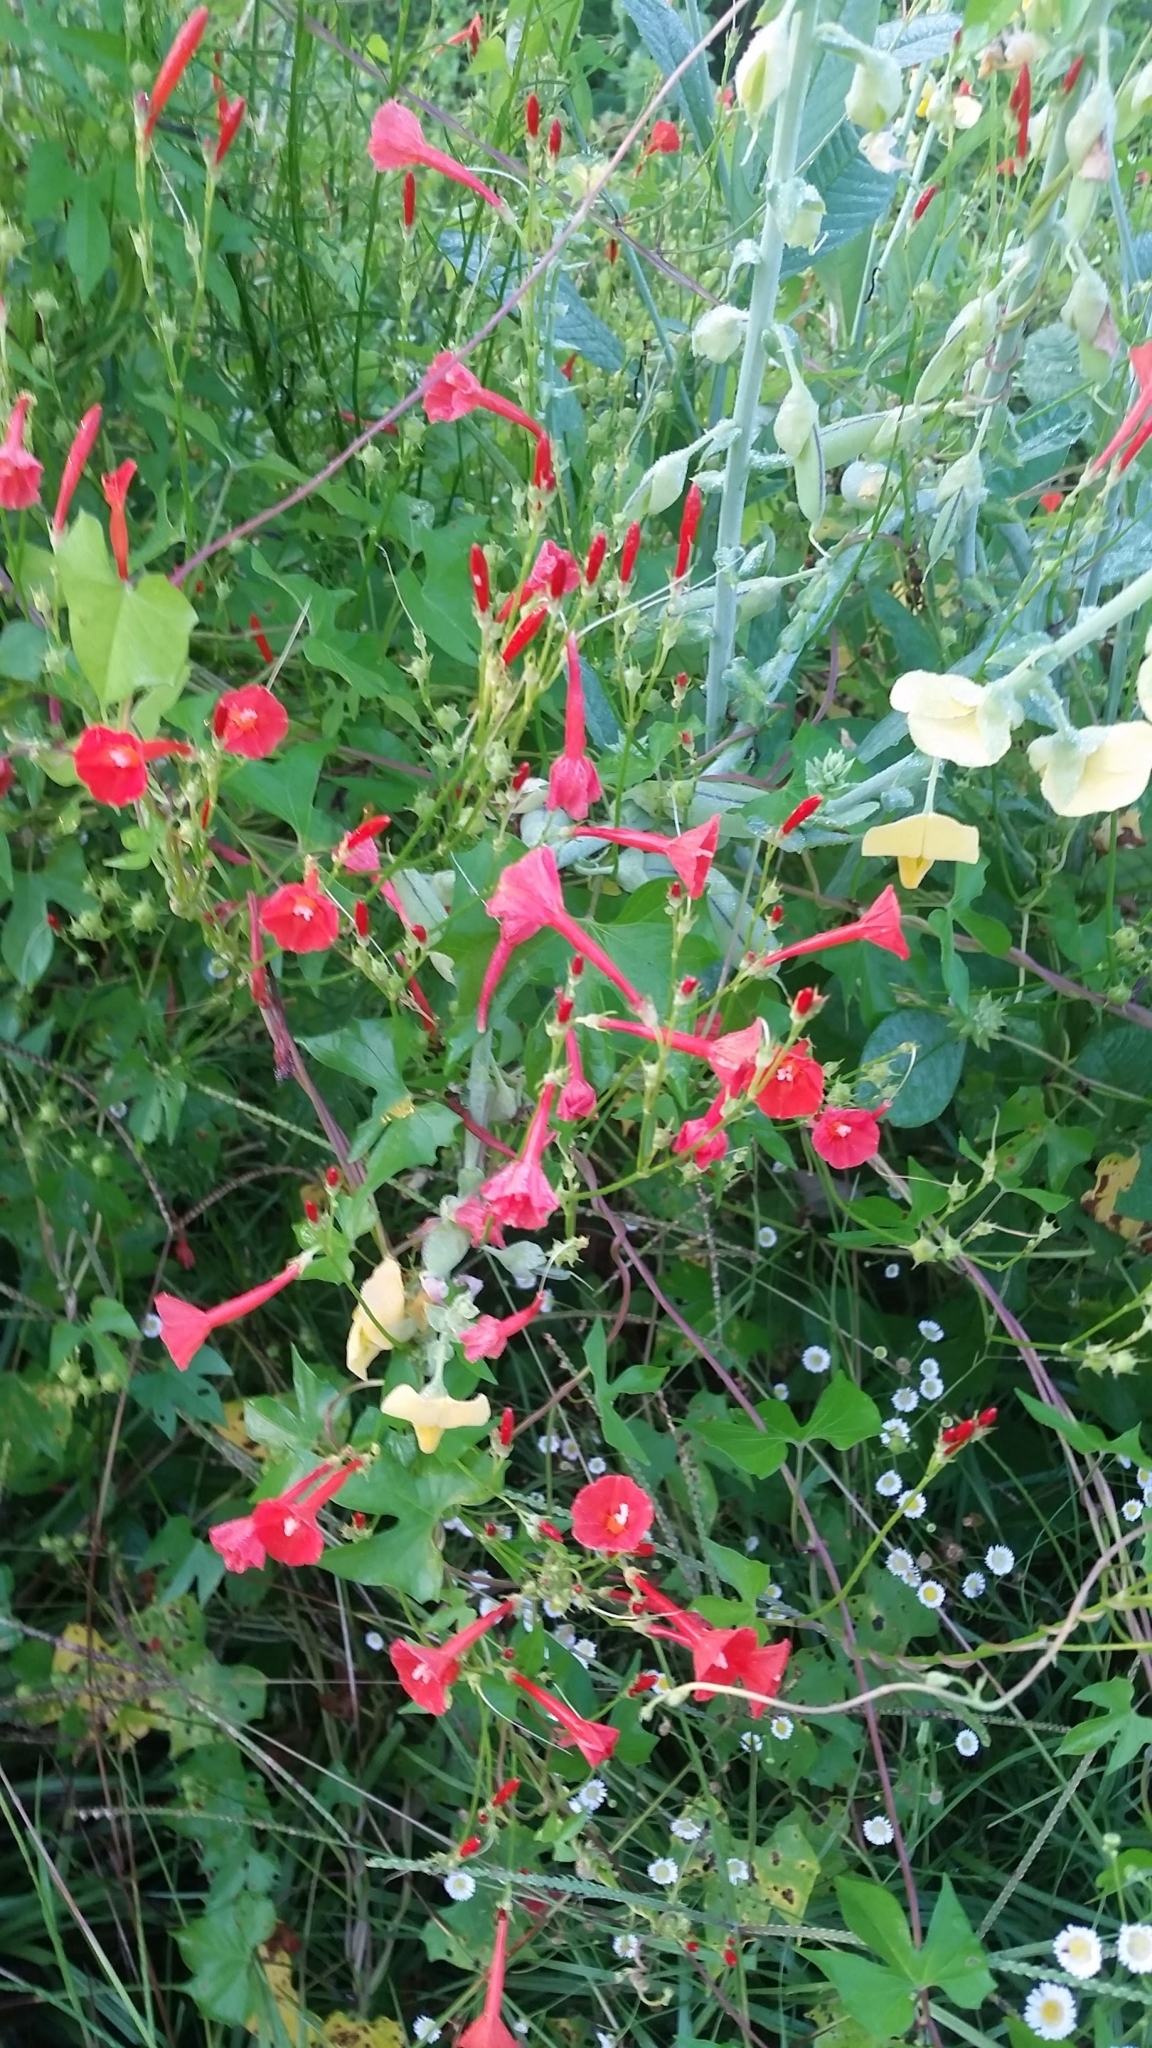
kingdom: Plantae
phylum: Tracheophyta
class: Magnoliopsida
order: Solanales
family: Convolvulaceae
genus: Ipomoea
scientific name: Ipomoea hederifolia
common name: Ivy-leaf morning-glory
